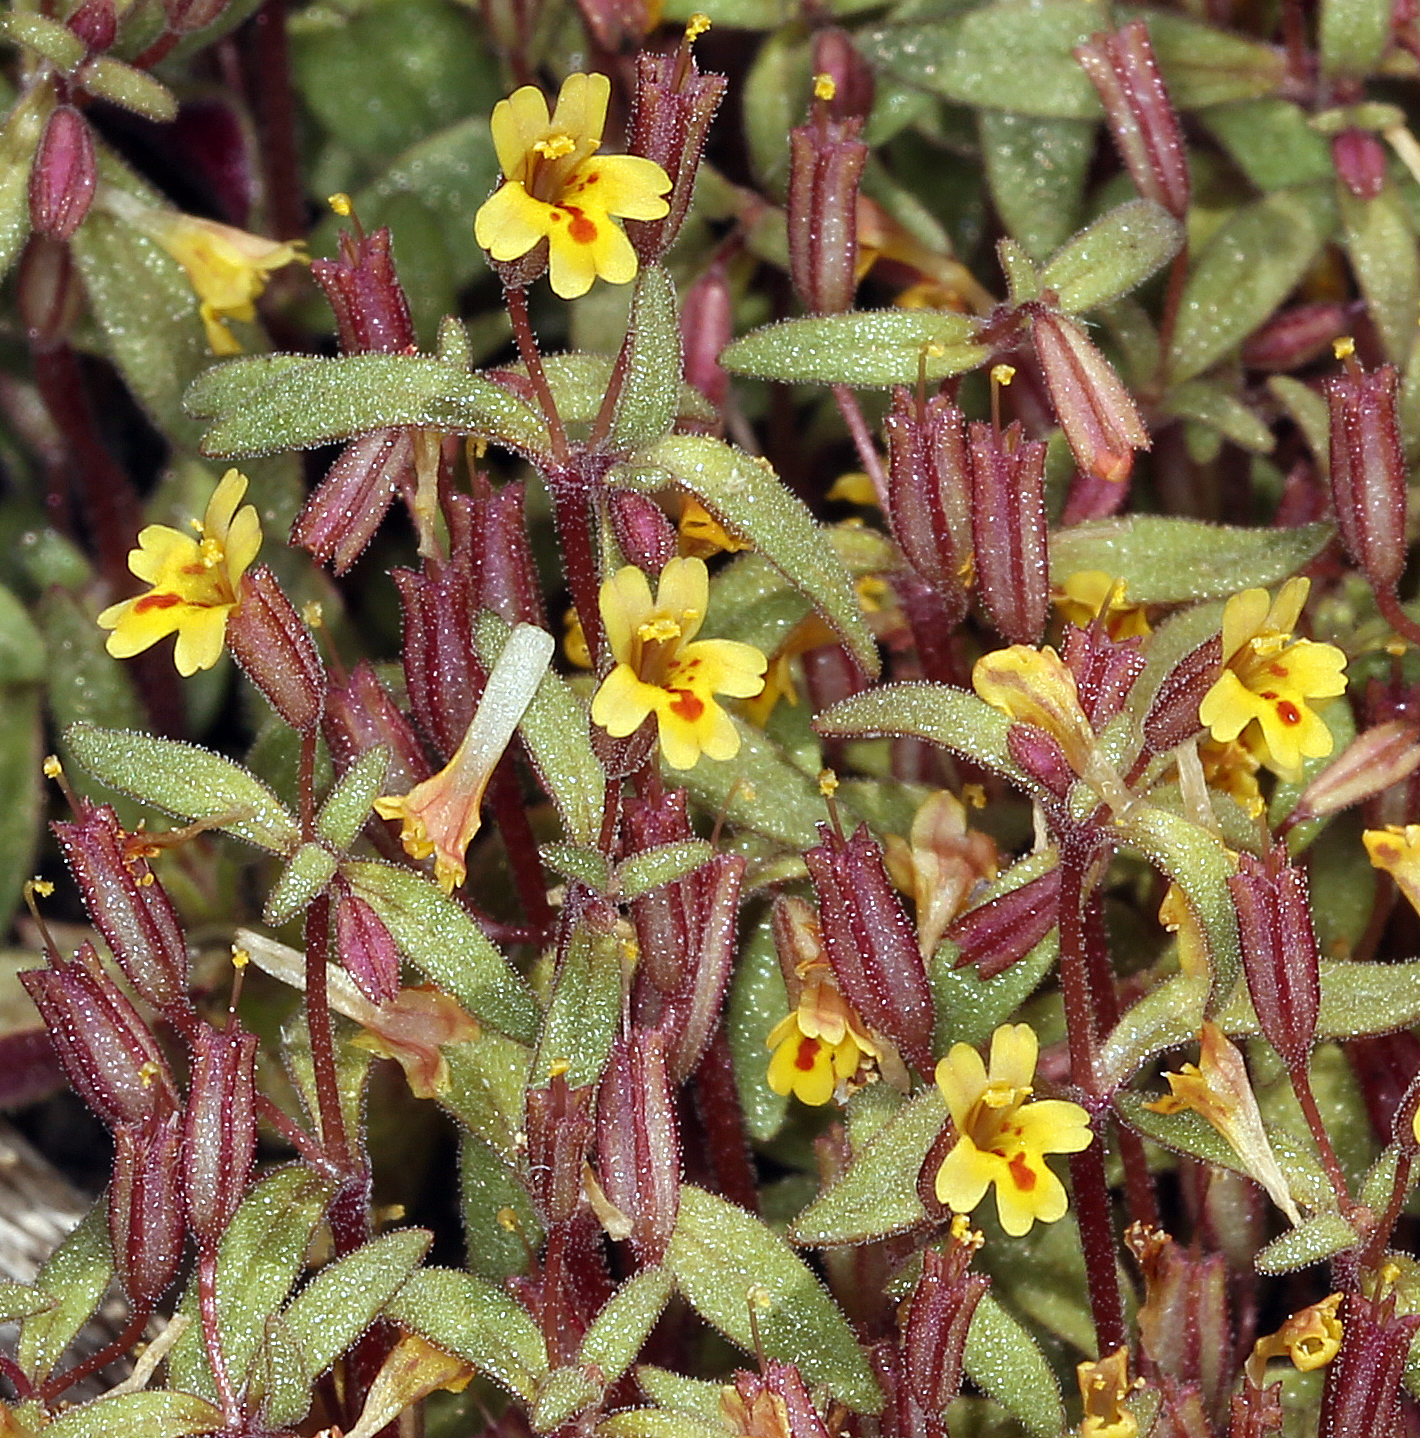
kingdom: Plantae
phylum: Tracheophyta
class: Magnoliopsida
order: Lamiales
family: Phrymaceae
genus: Erythranthe
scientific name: Erythranthe suksdorfii
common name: Suksdorf's monkeyflower
